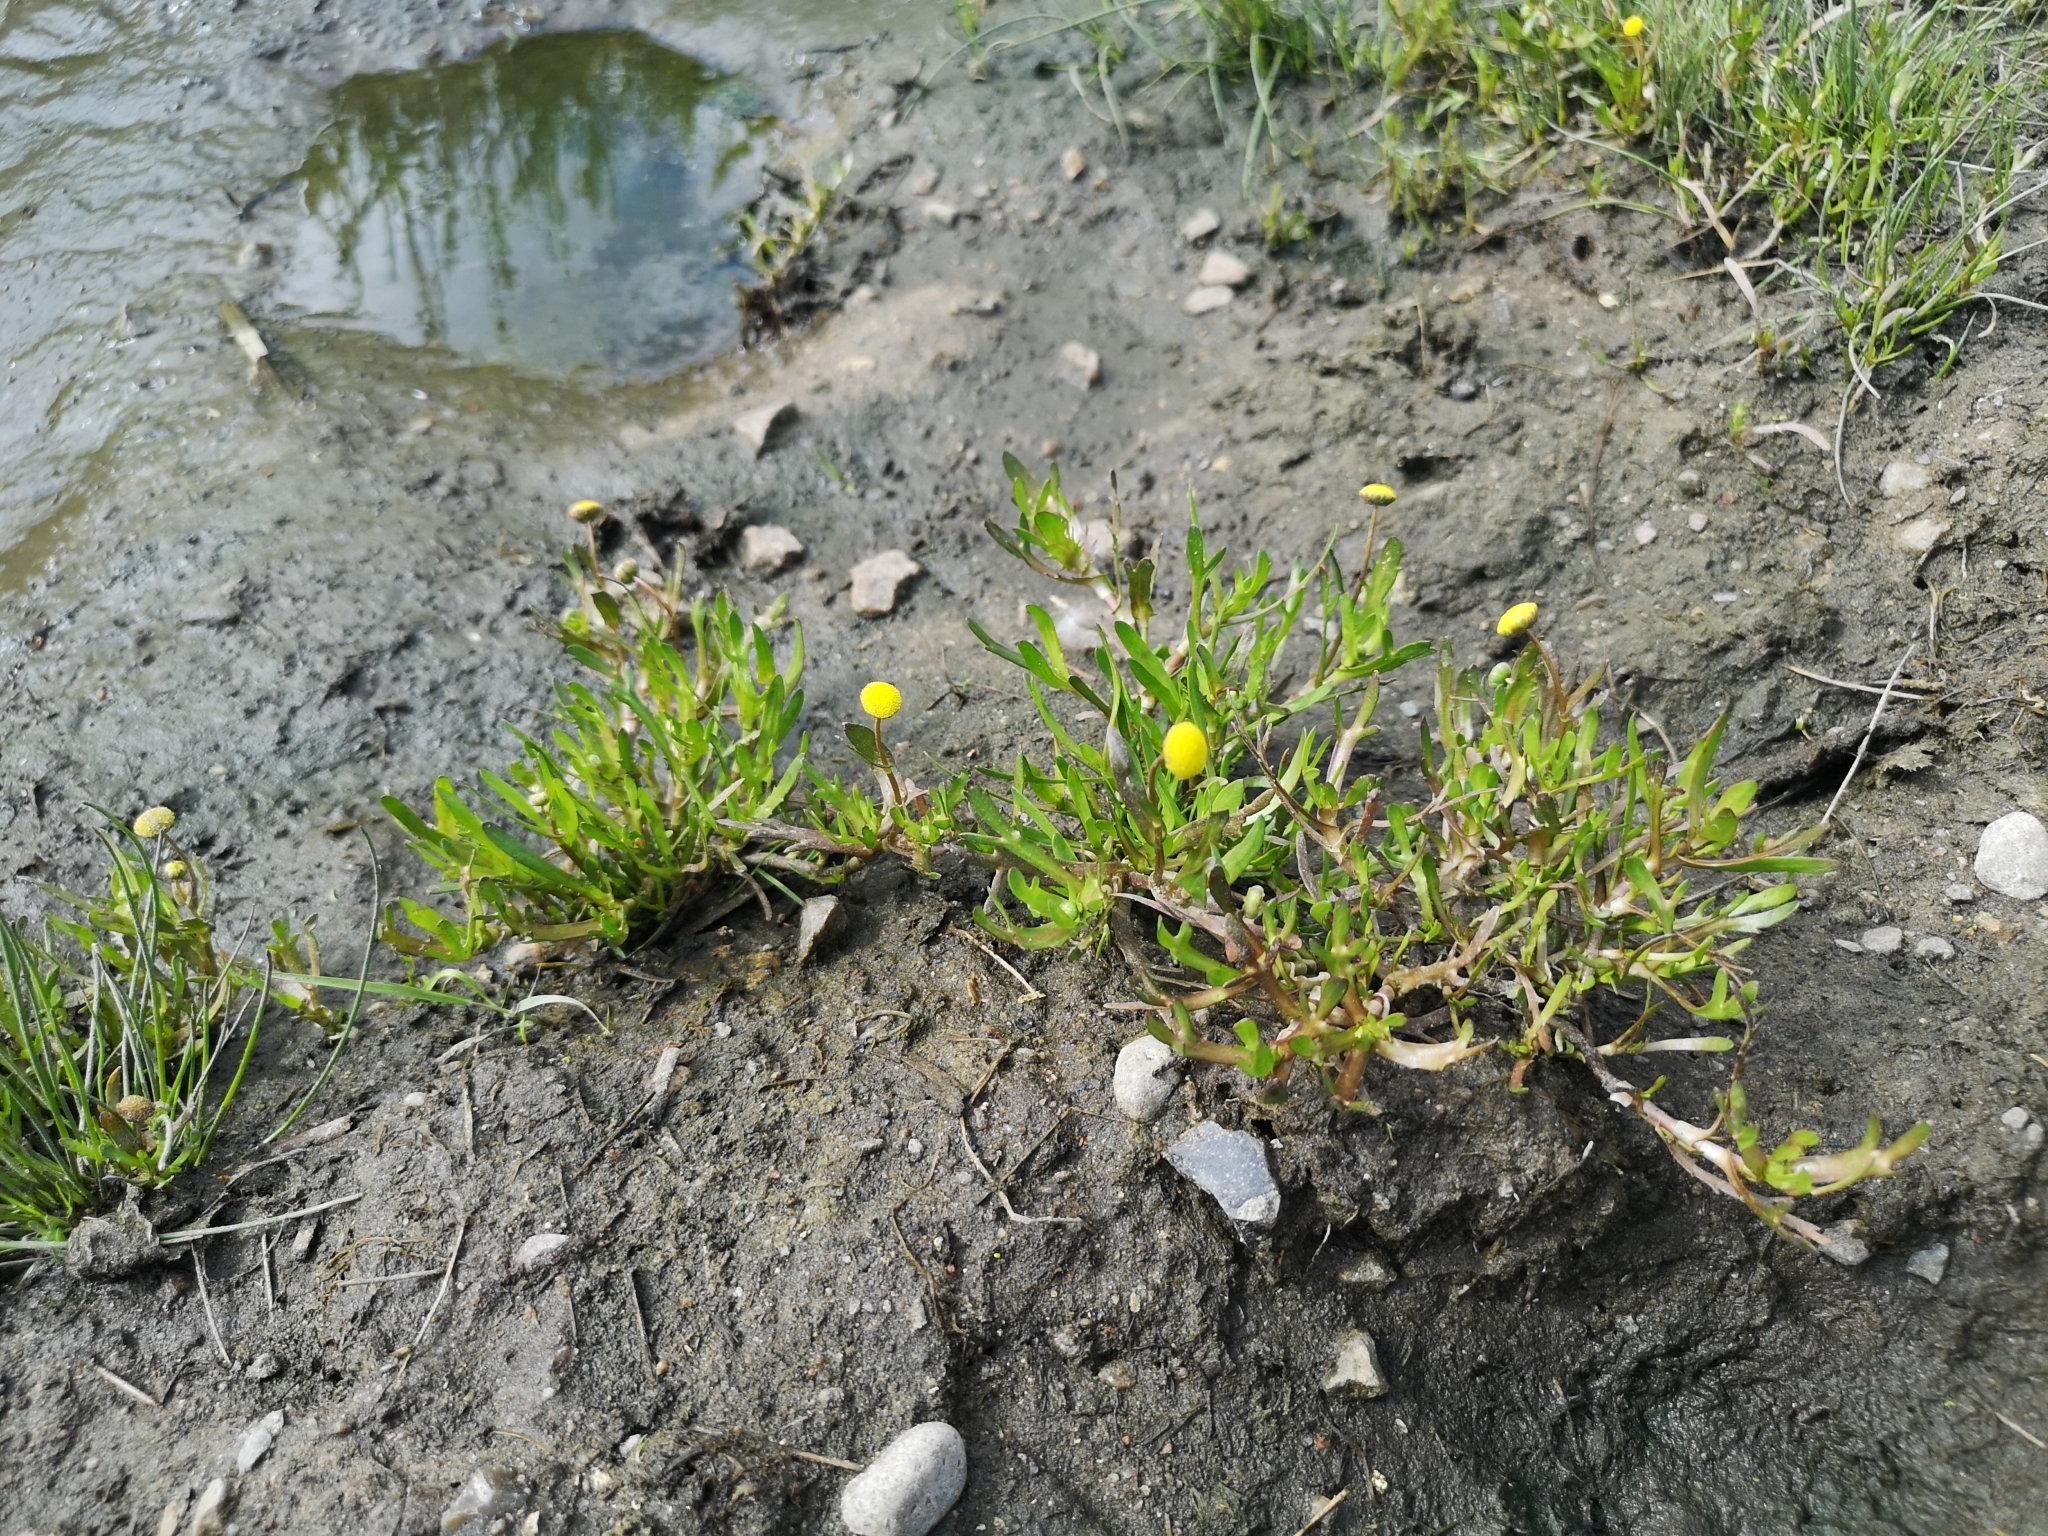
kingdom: Plantae
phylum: Tracheophyta
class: Magnoliopsida
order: Asterales
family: Asteraceae
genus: Cotula
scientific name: Cotula coronopifolia
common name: Buttonweed
